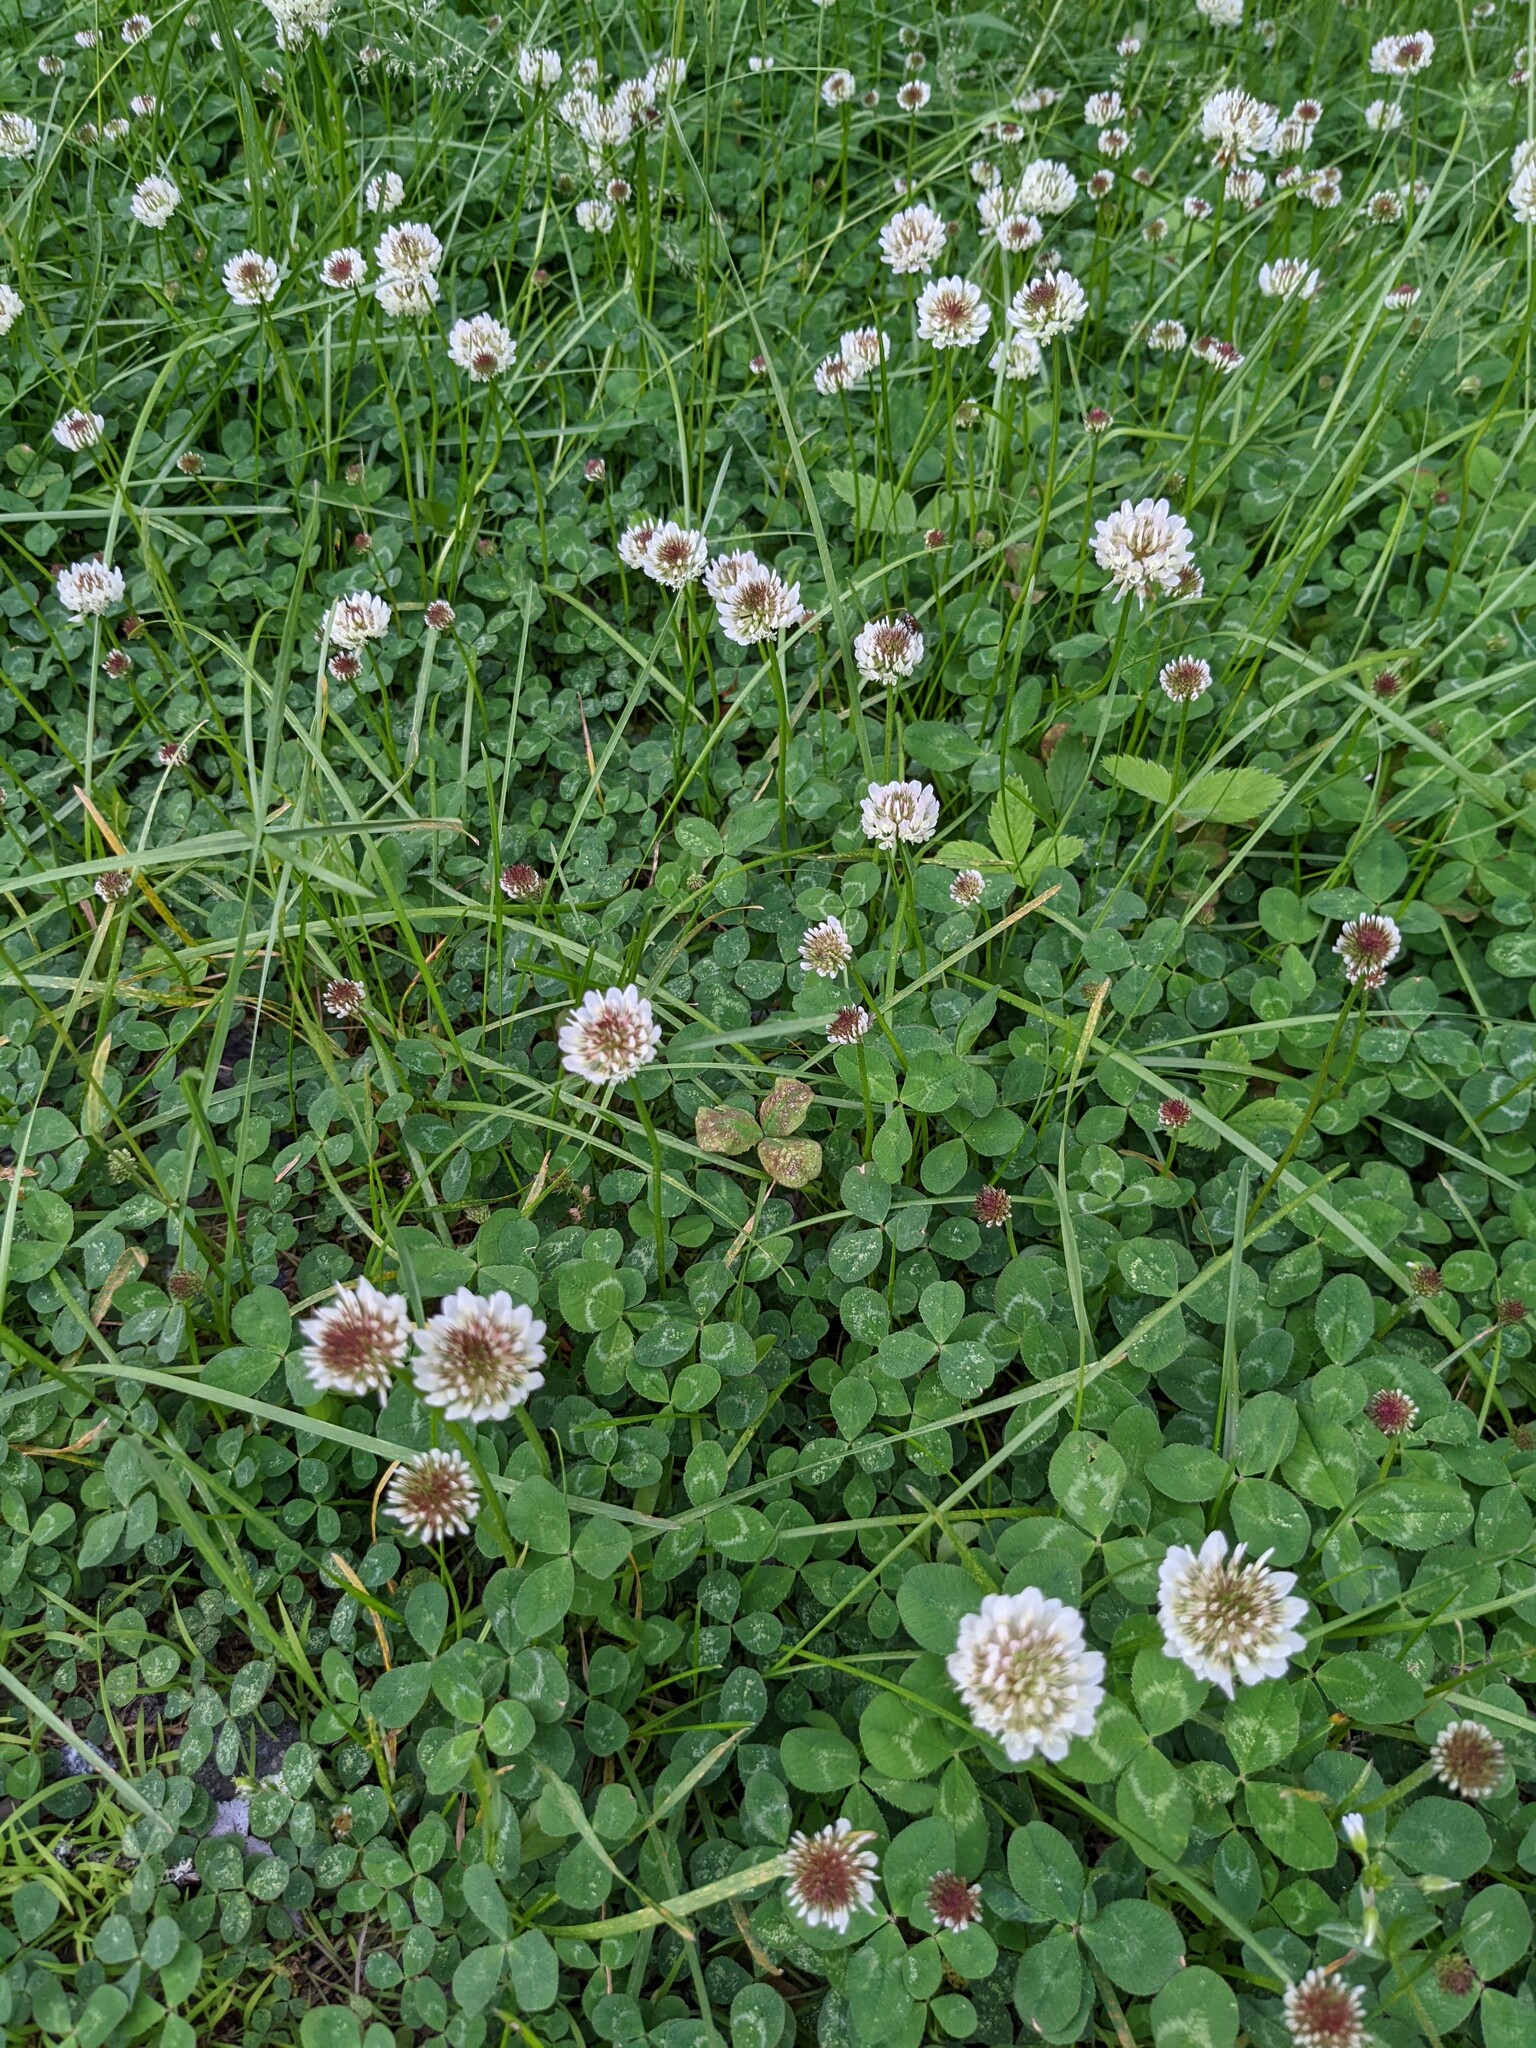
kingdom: Plantae
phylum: Tracheophyta
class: Magnoliopsida
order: Fabales
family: Fabaceae
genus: Trifolium
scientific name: Trifolium repens
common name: White clover
